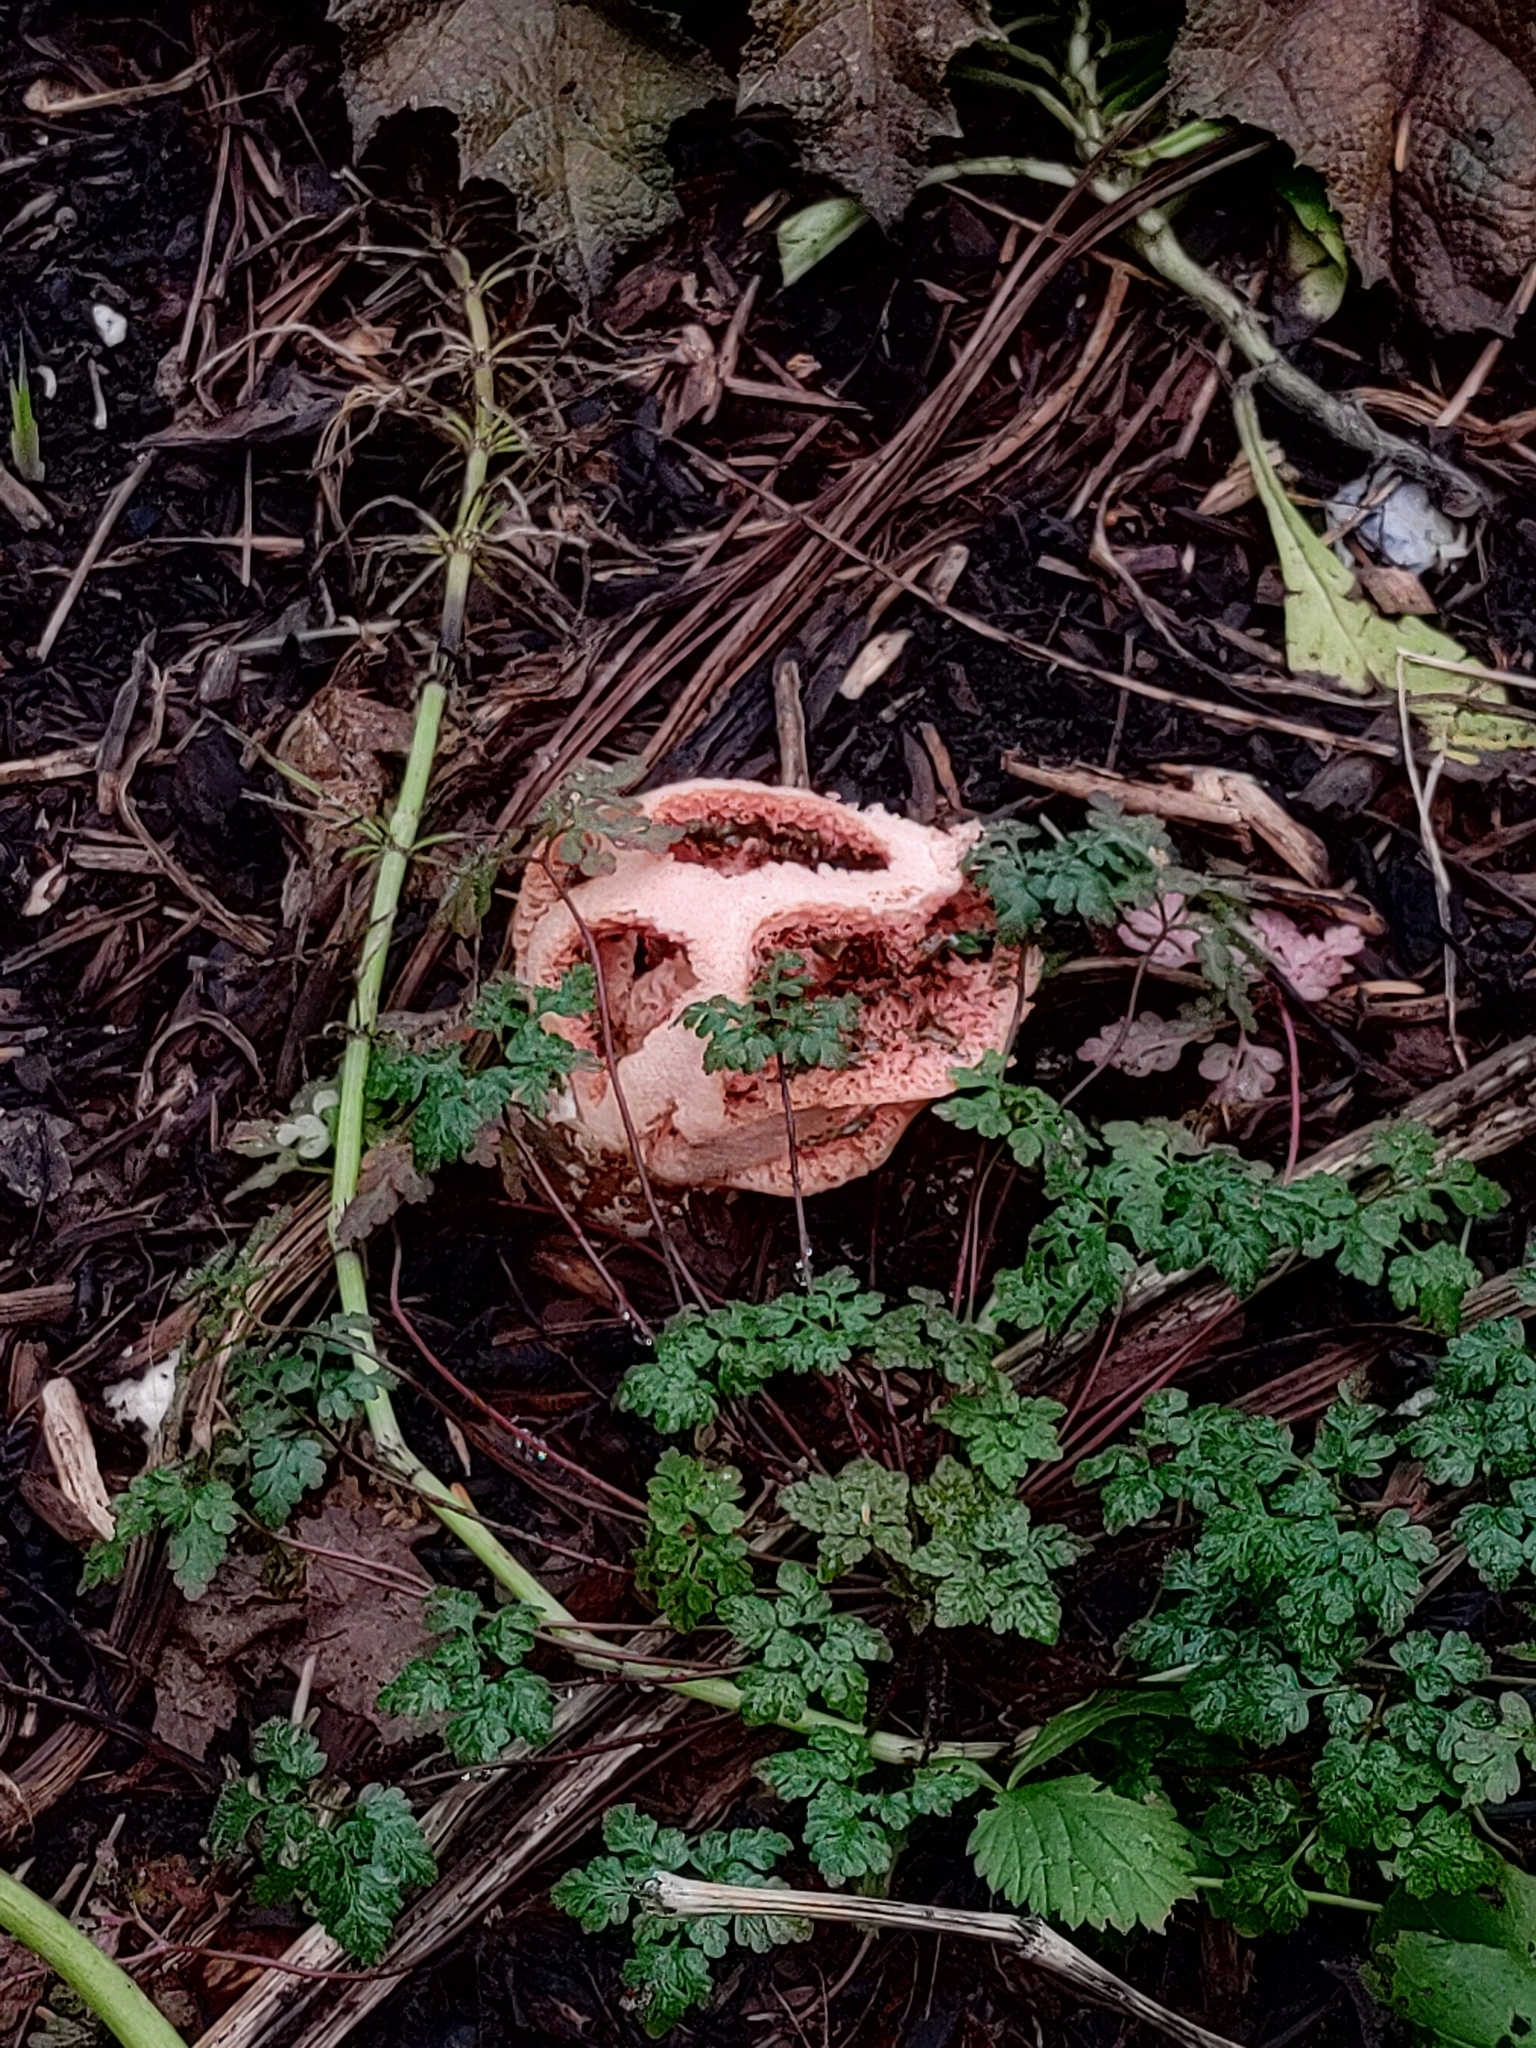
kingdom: Fungi
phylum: Basidiomycota
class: Agaricomycetes
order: Phallales
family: Phallaceae
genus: Clathrus
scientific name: Clathrus ruber
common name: Red cage
